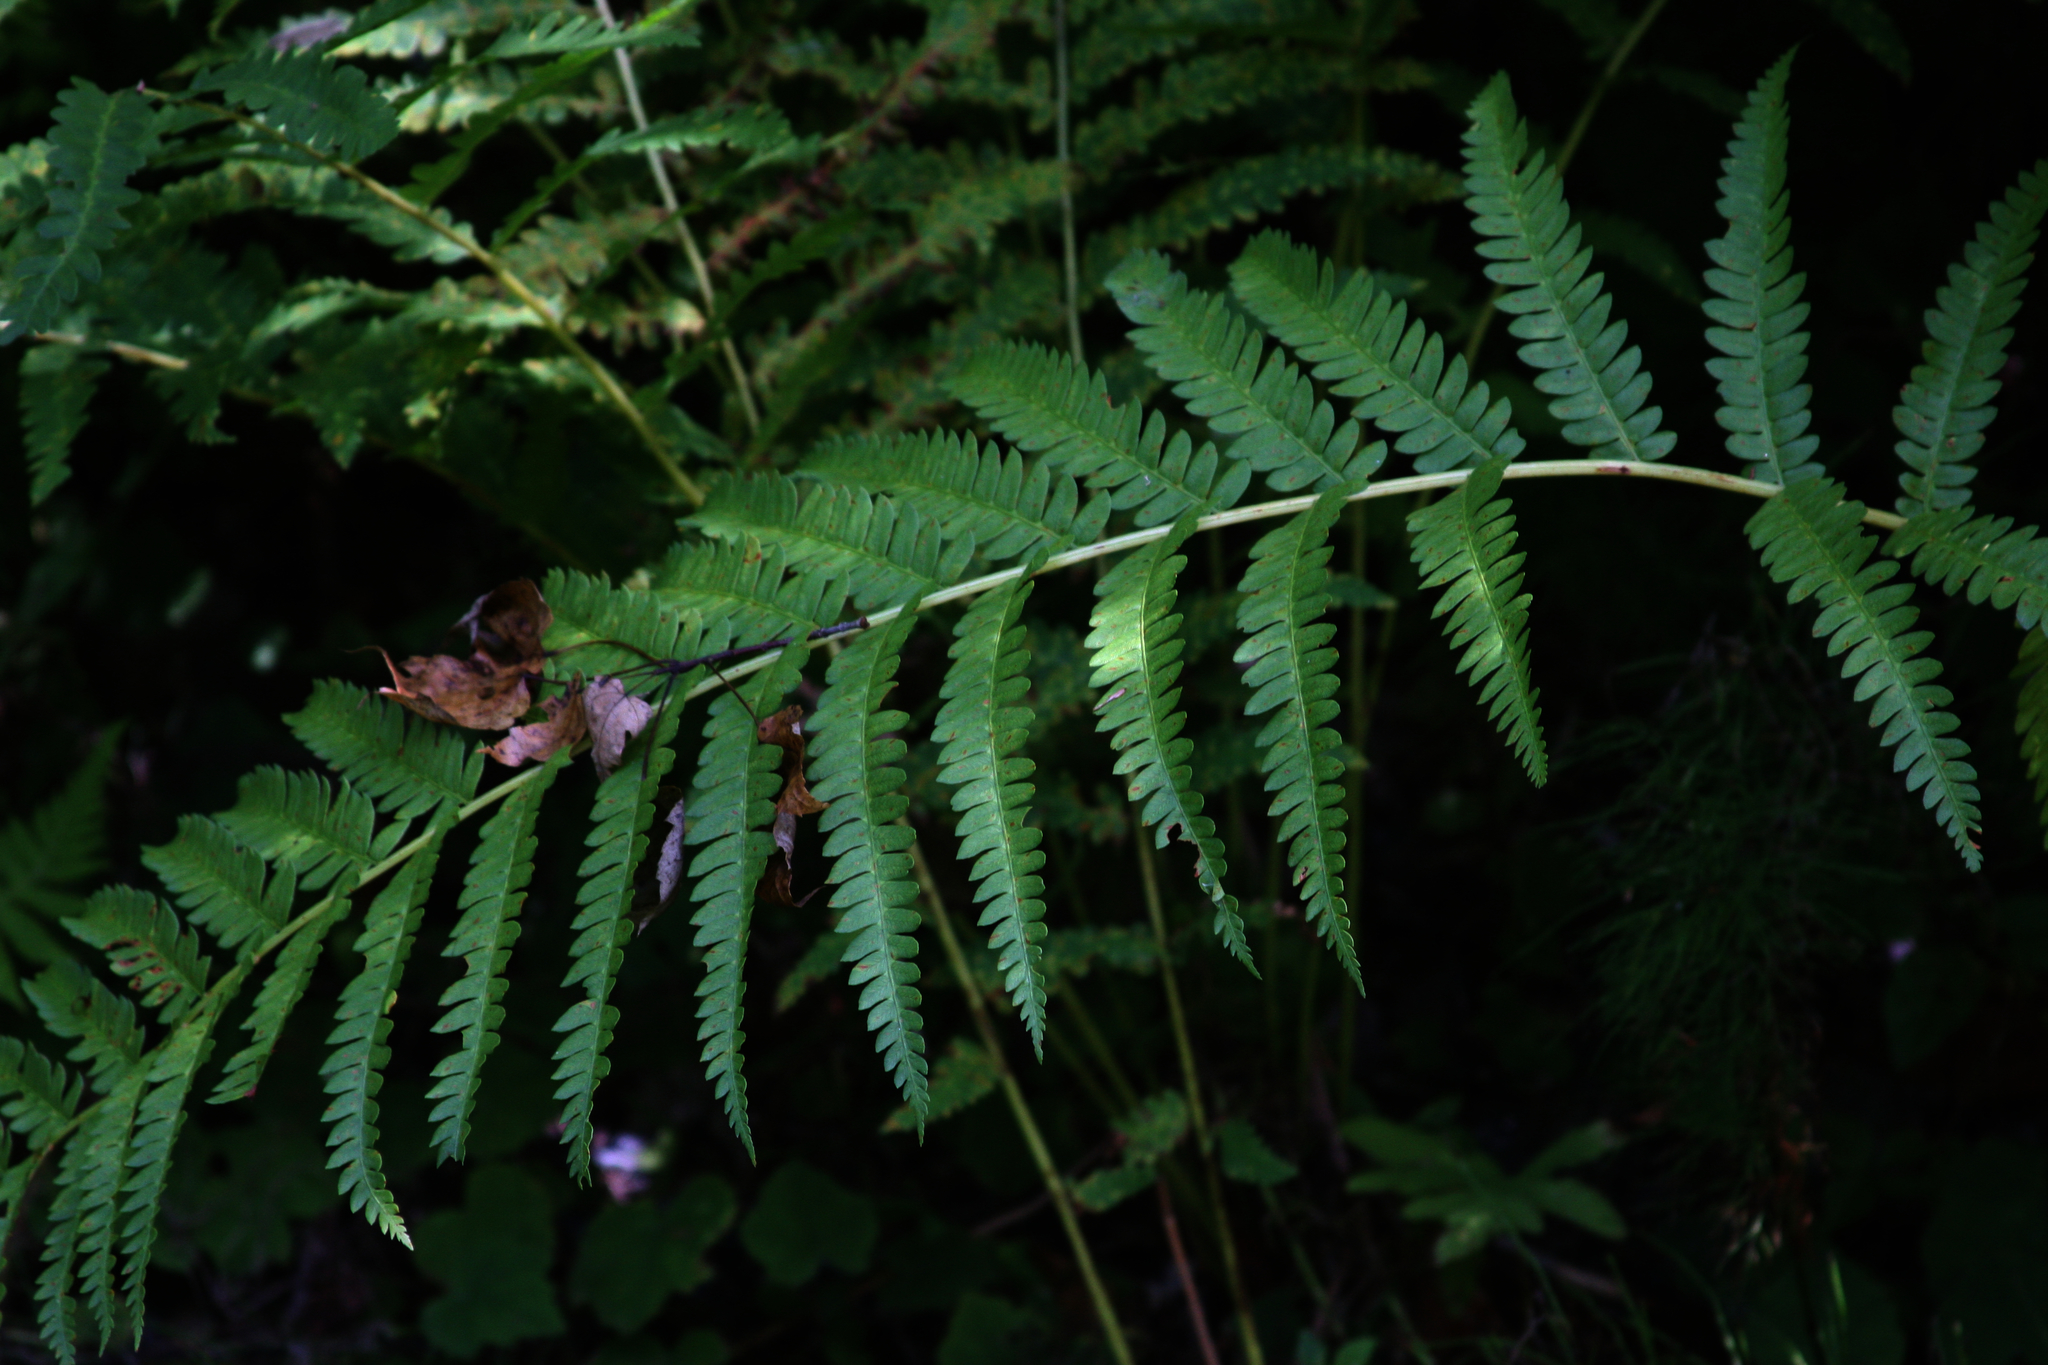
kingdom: Plantae
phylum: Tracheophyta
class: Polypodiopsida
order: Osmundales
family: Osmundaceae
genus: Osmundastrum
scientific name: Osmundastrum cinnamomeum
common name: Cinnamon fern
